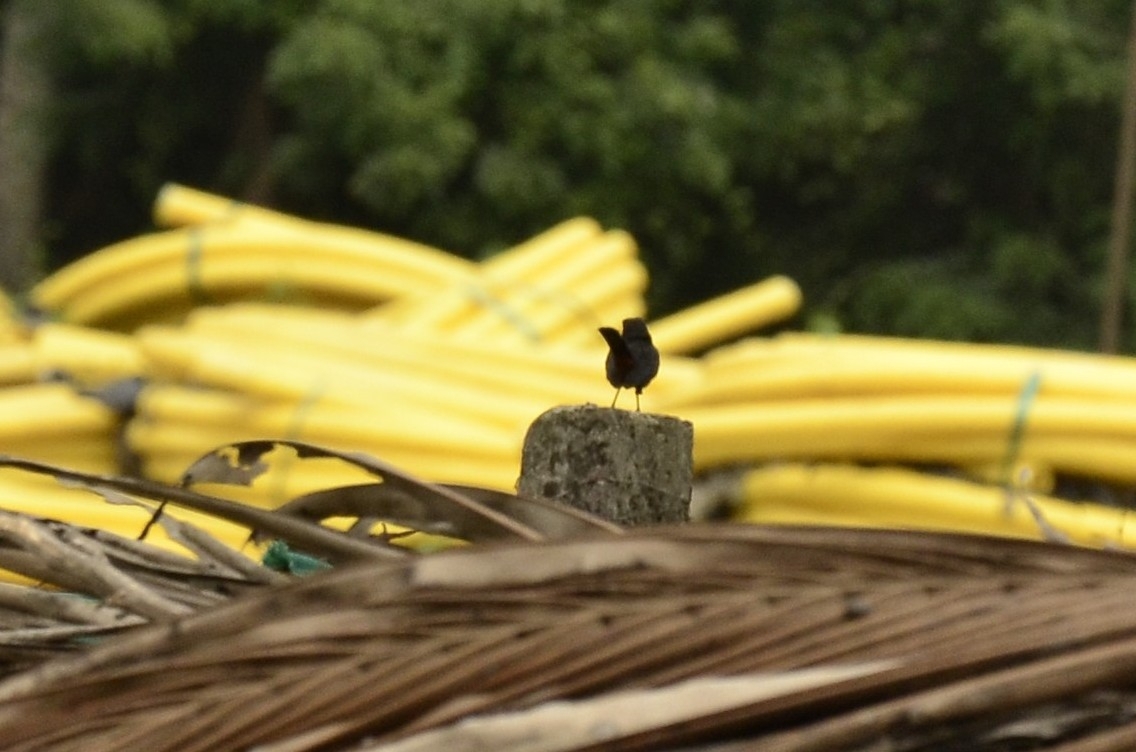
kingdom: Animalia
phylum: Chordata
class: Aves
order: Passeriformes
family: Muscicapidae
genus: Saxicoloides
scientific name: Saxicoloides fulicatus
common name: Indian robin
